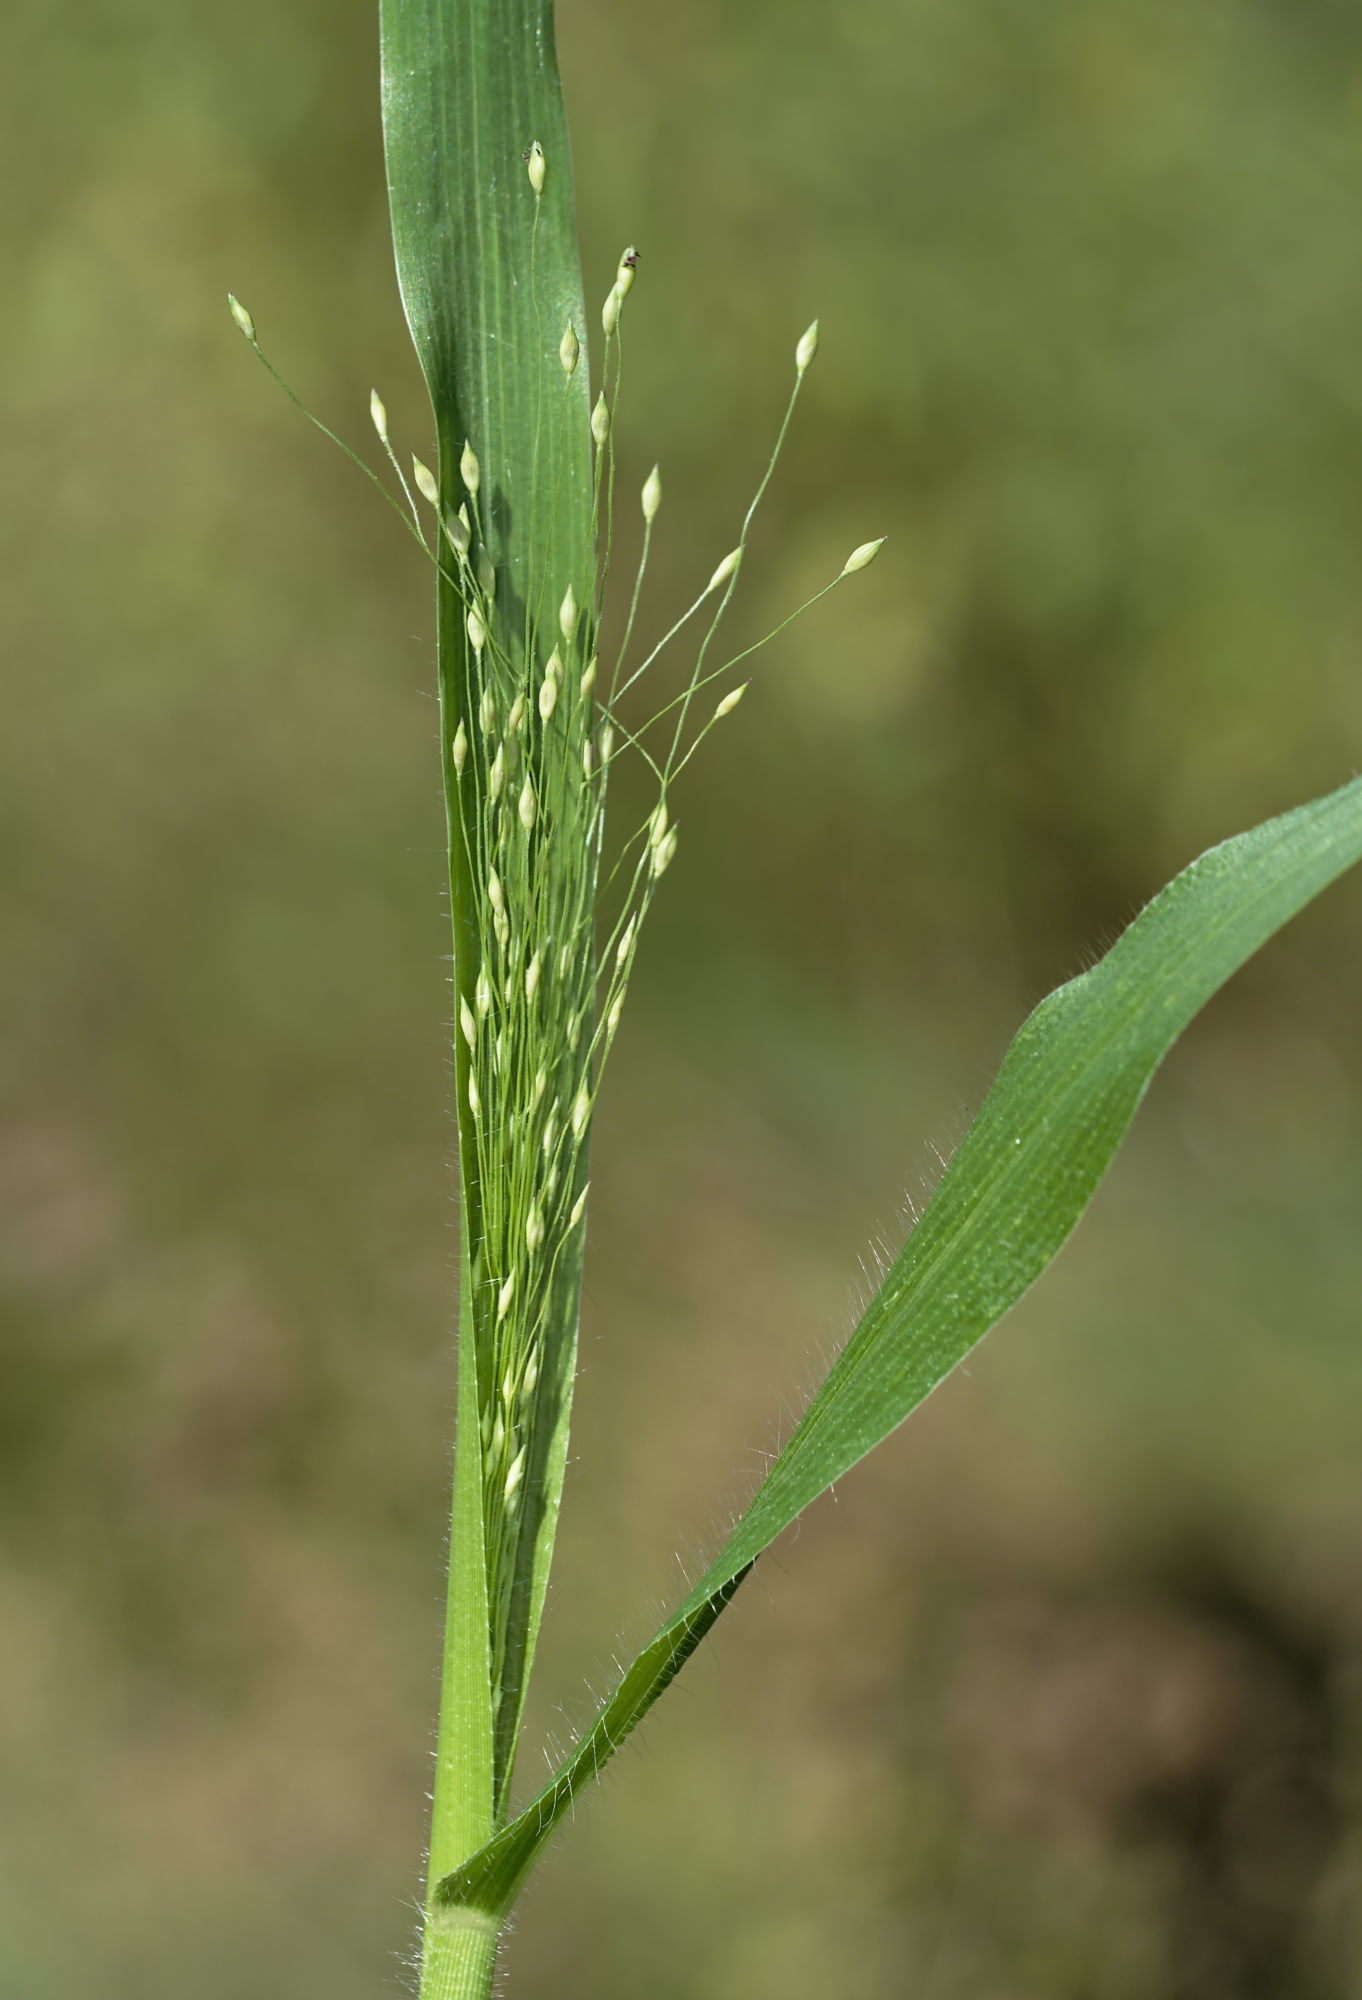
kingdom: Plantae
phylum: Tracheophyta
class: Liliopsida
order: Poales
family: Poaceae
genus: Panicum
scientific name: Panicum capillare
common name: Witch-grass
